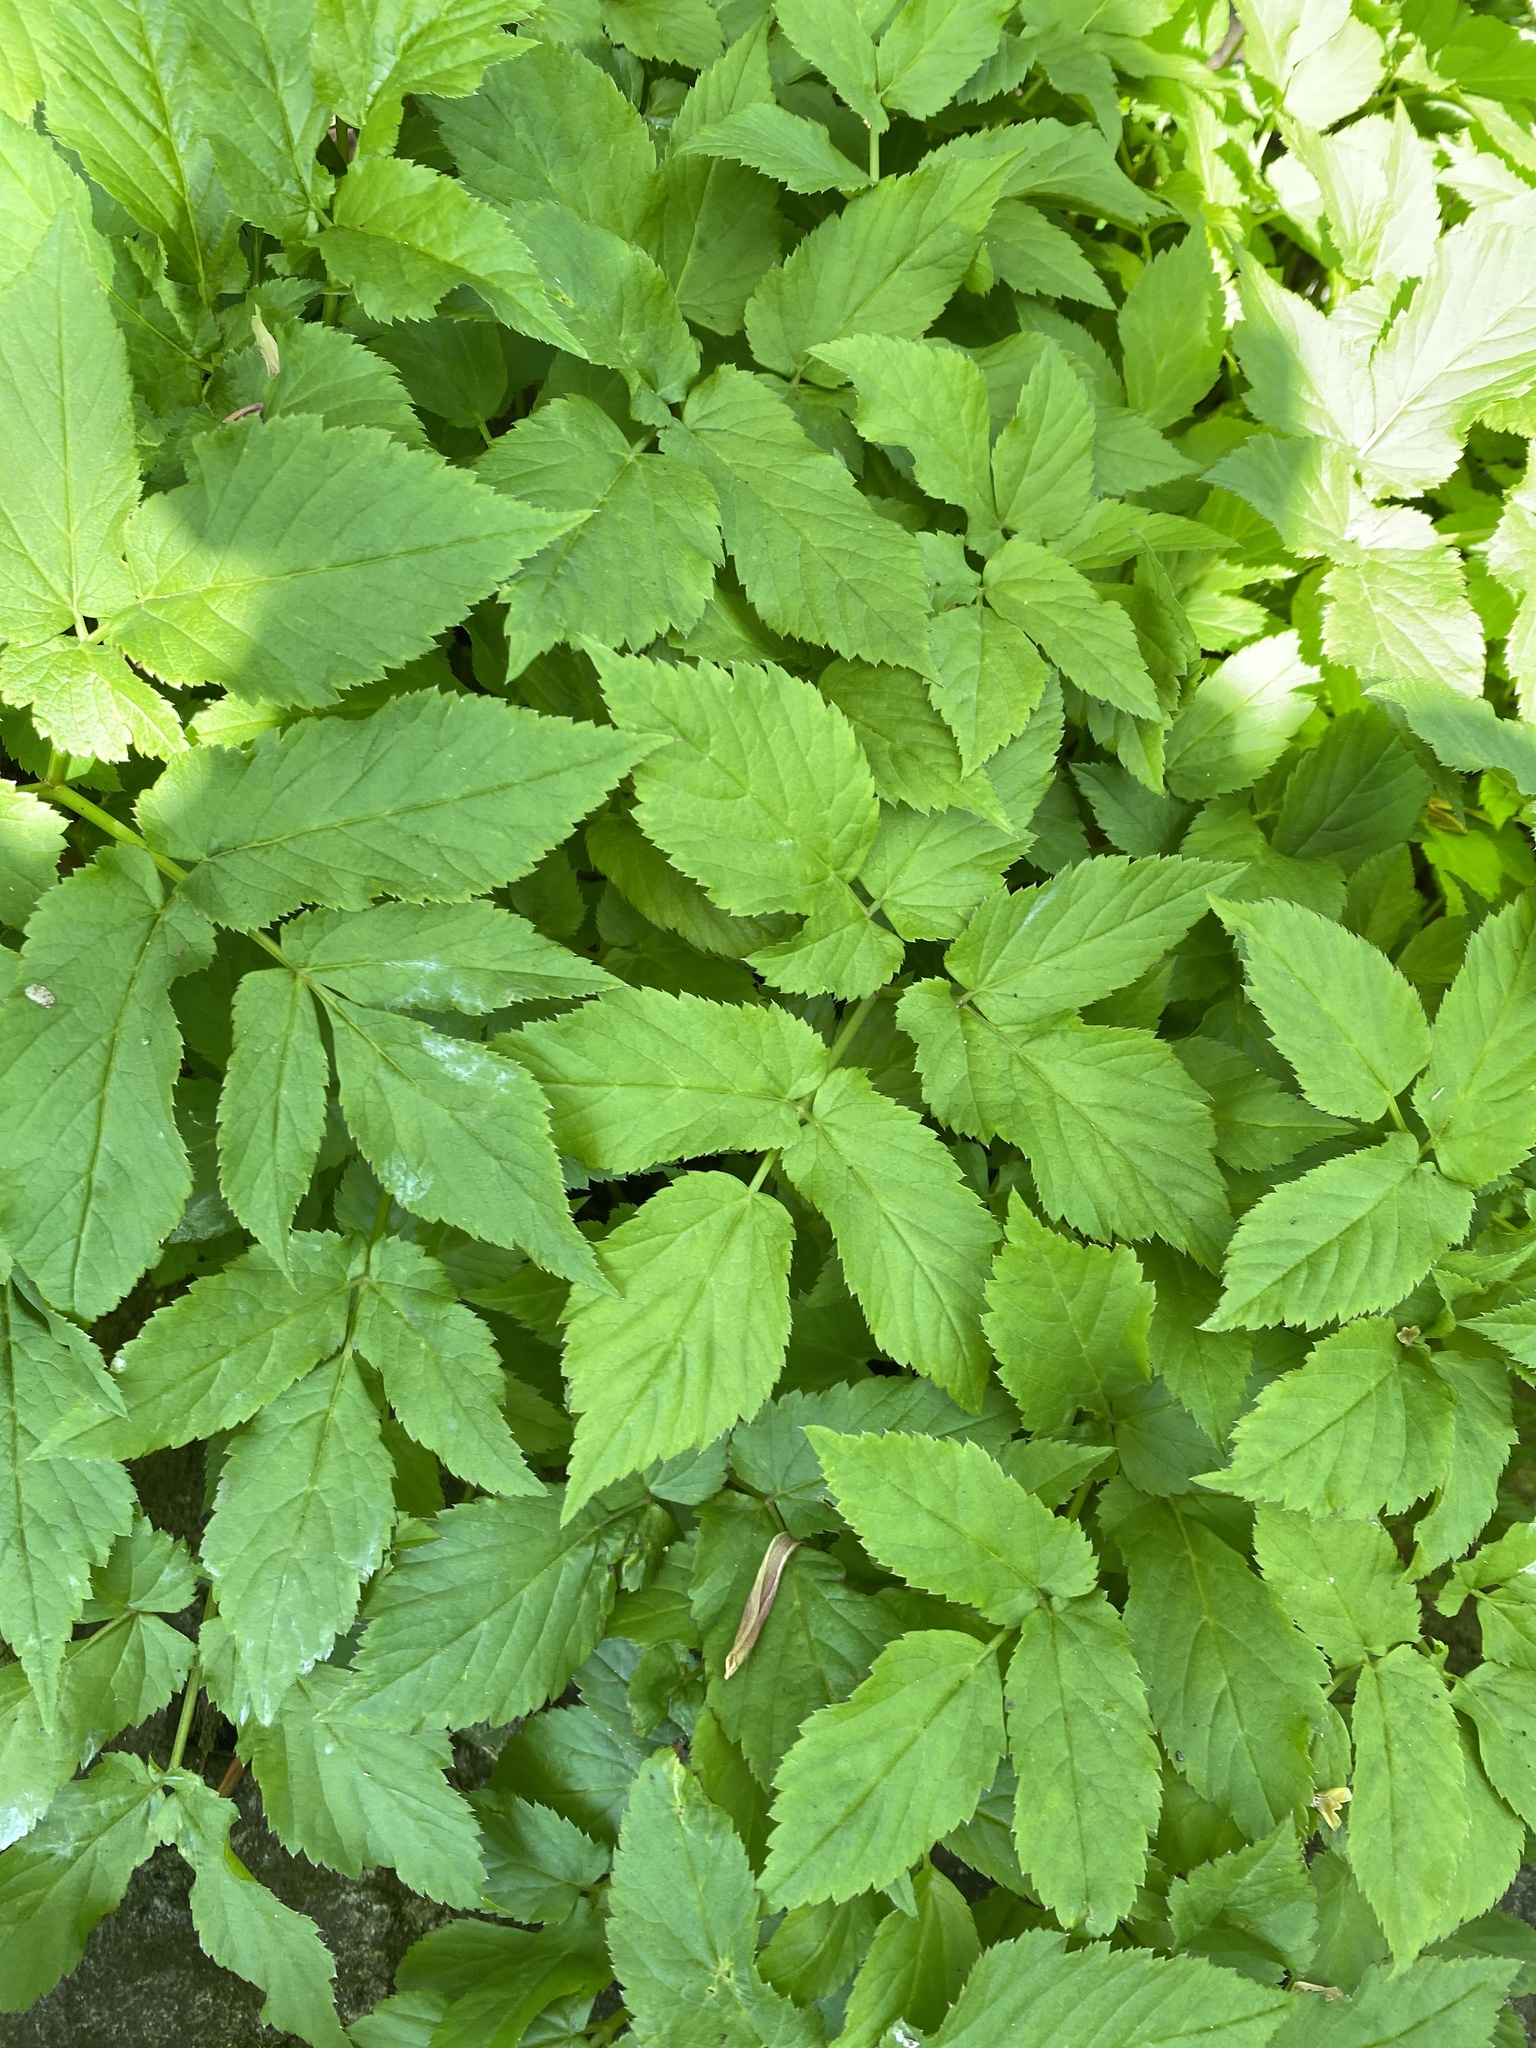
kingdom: Plantae
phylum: Tracheophyta
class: Magnoliopsida
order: Apiales
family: Apiaceae
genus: Aegopodium
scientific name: Aegopodium podagraria
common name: Ground-elder
